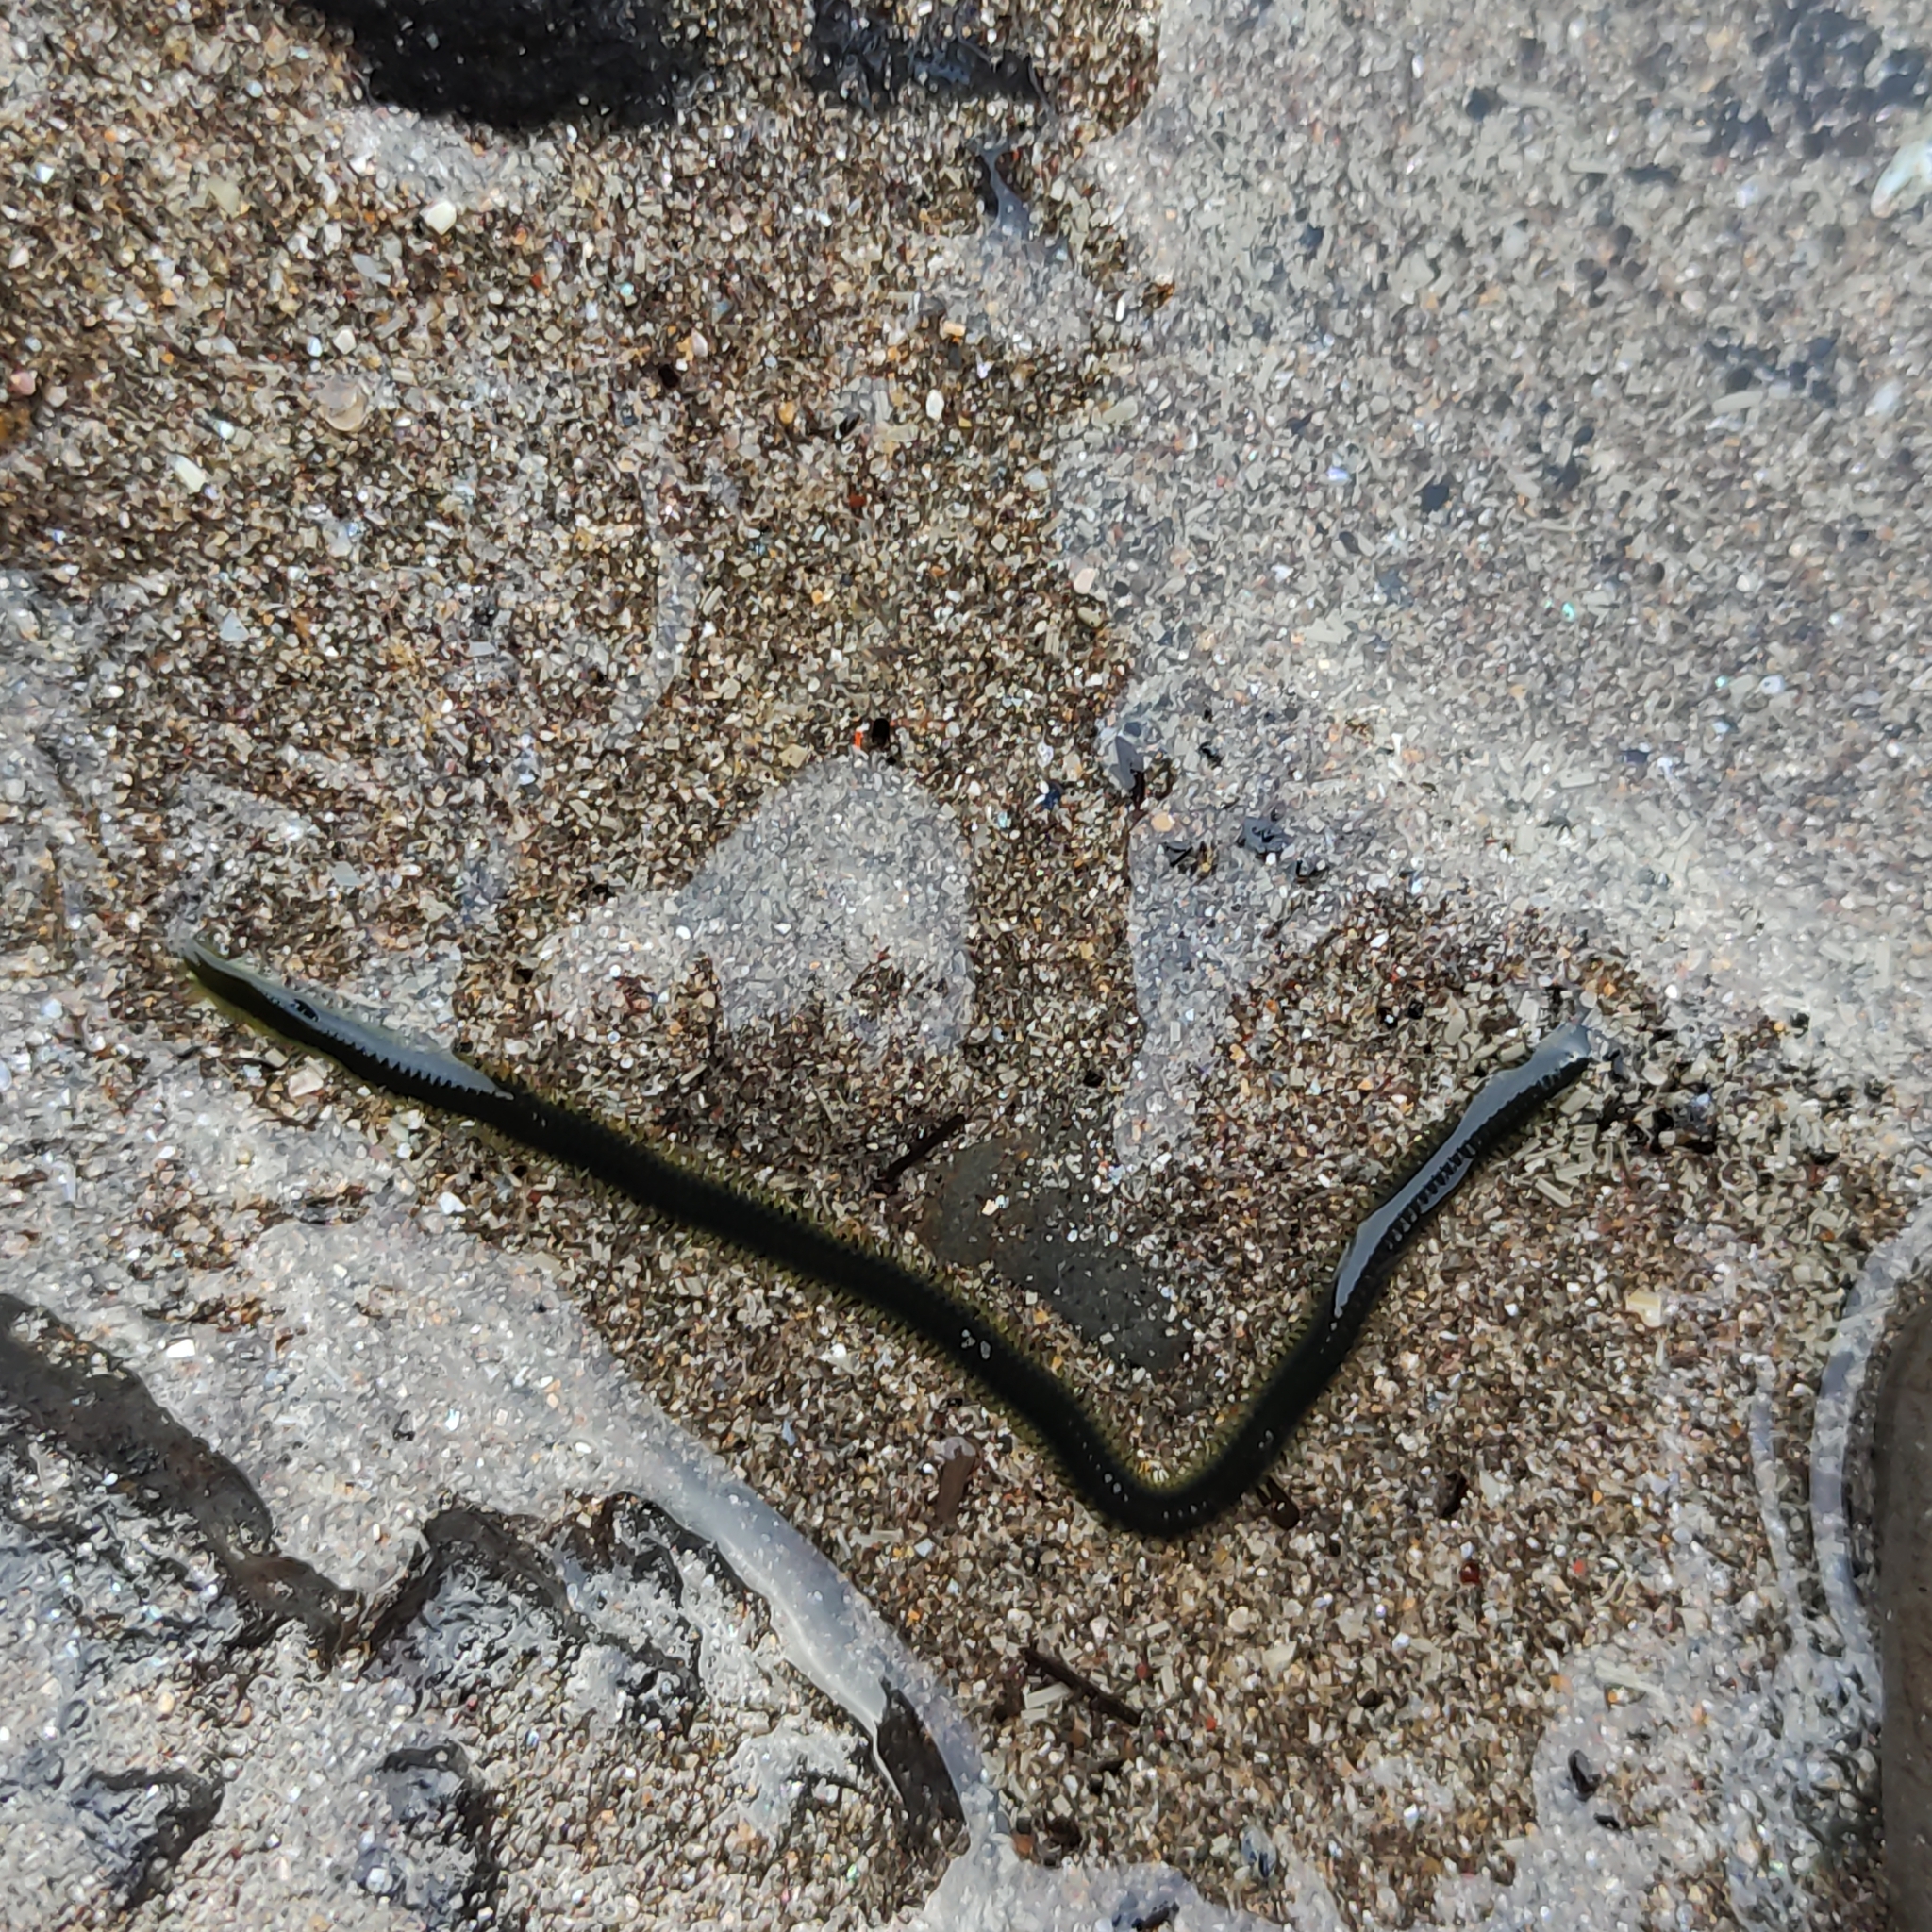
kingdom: Animalia
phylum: Annelida
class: Polychaeta
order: Phyllodocida
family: Phyllodocidae
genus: Eulalia
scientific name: Eulalia microphylla
